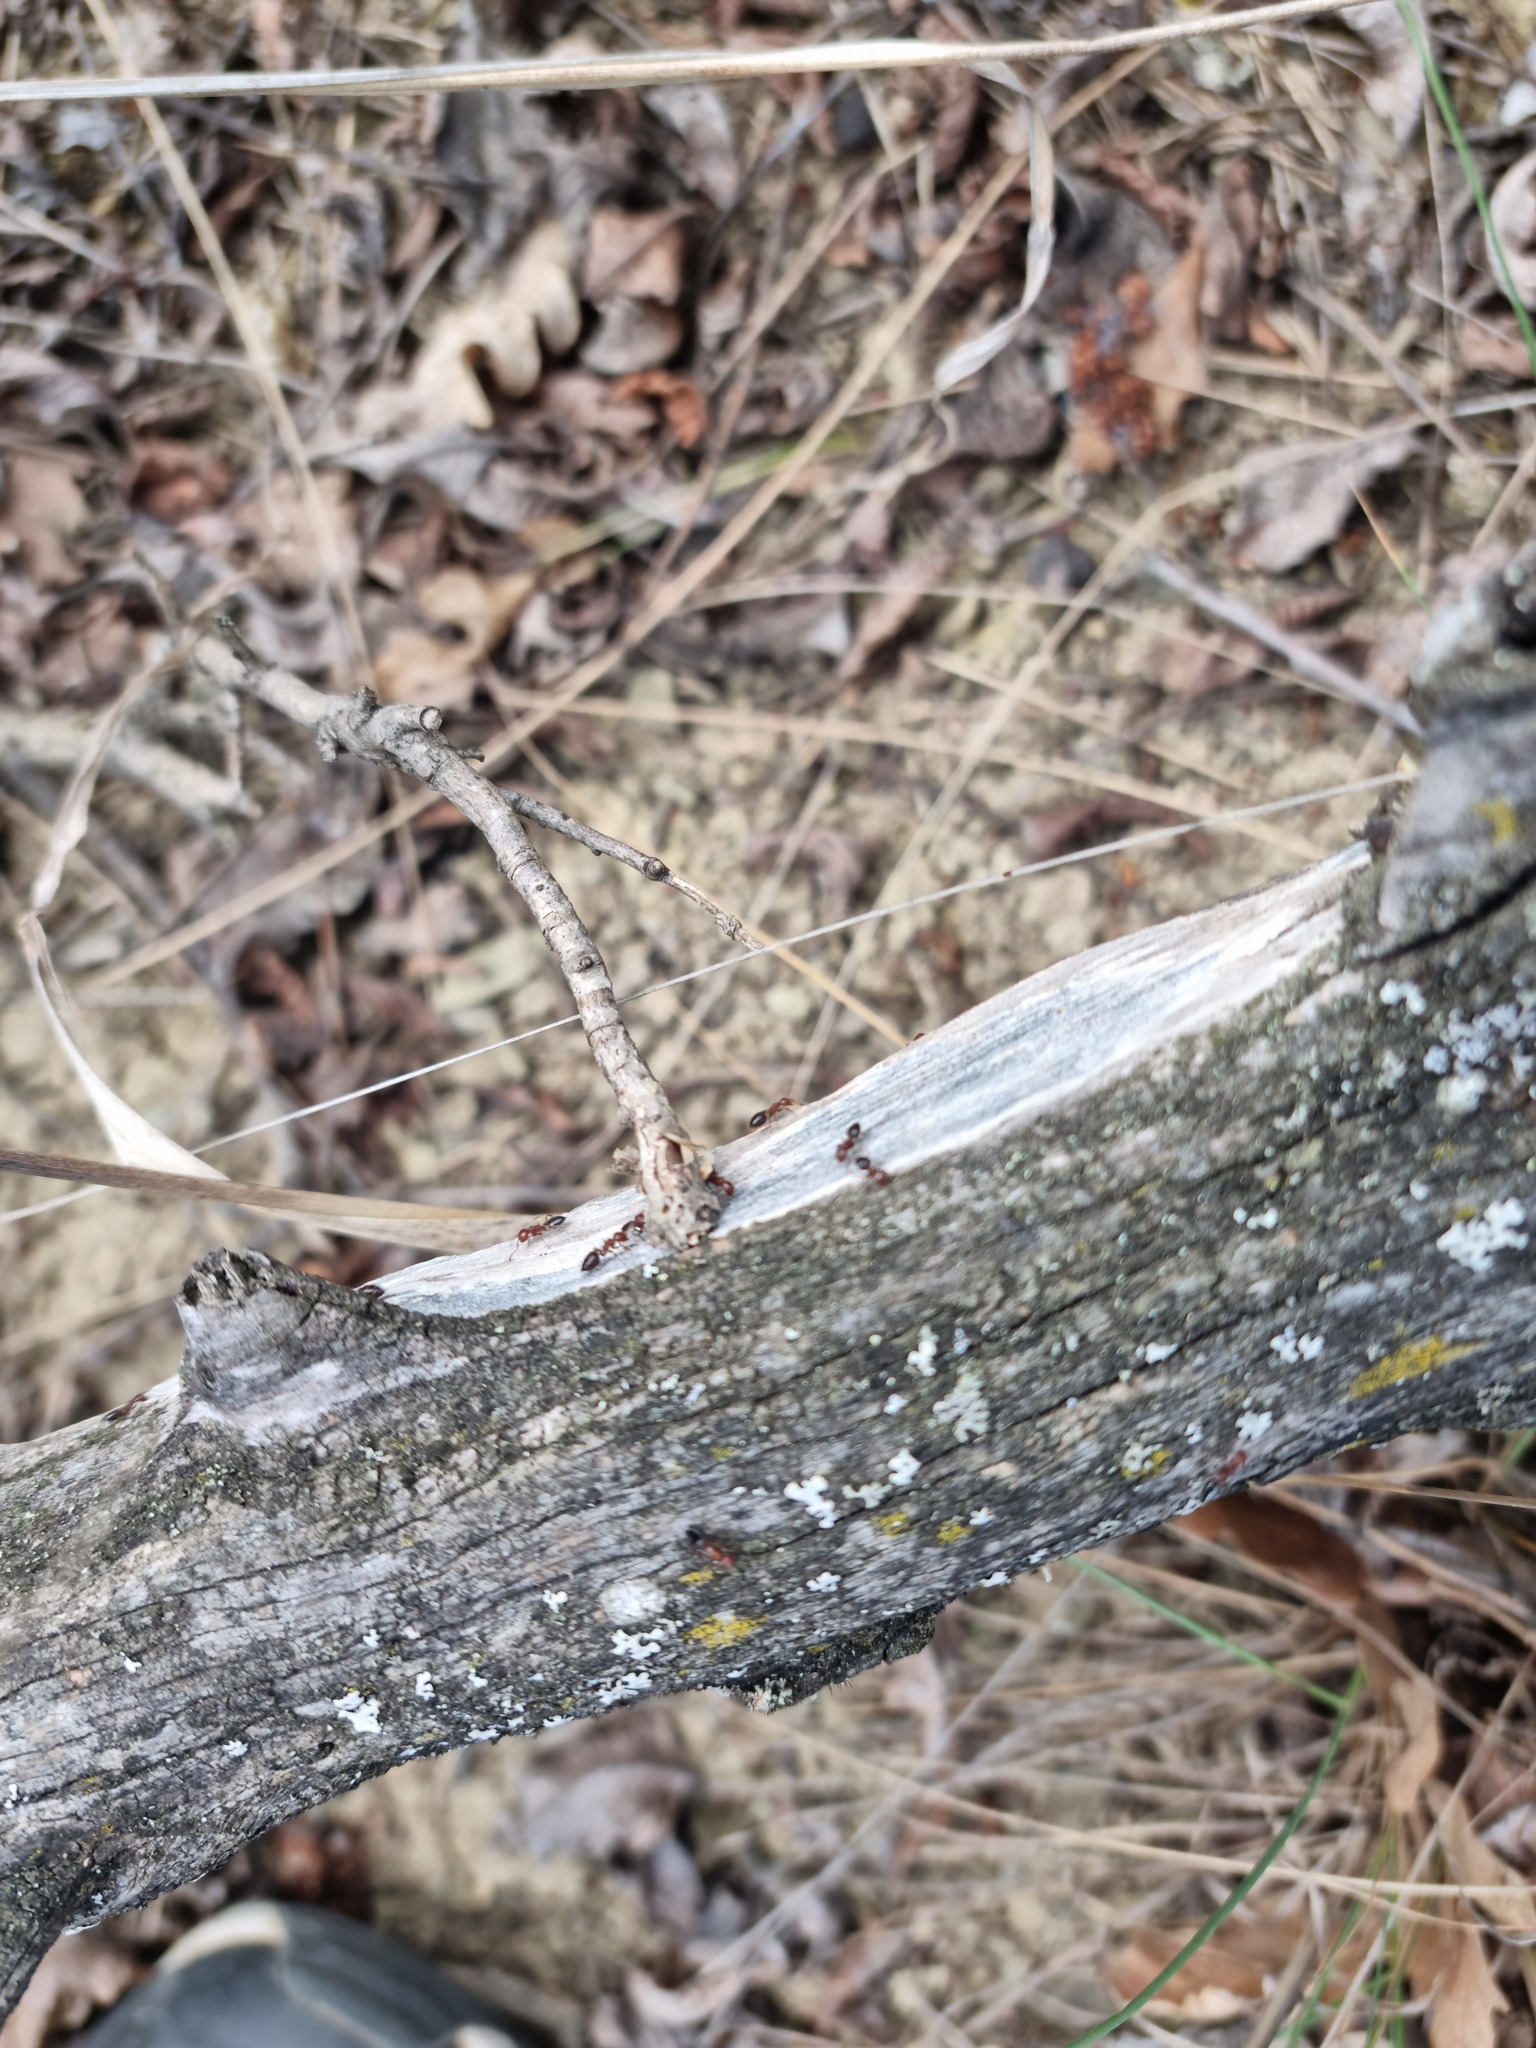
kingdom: Animalia
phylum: Arthropoda
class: Insecta
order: Hymenoptera
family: Formicidae
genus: Crematogaster
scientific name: Crematogaster schmidti
